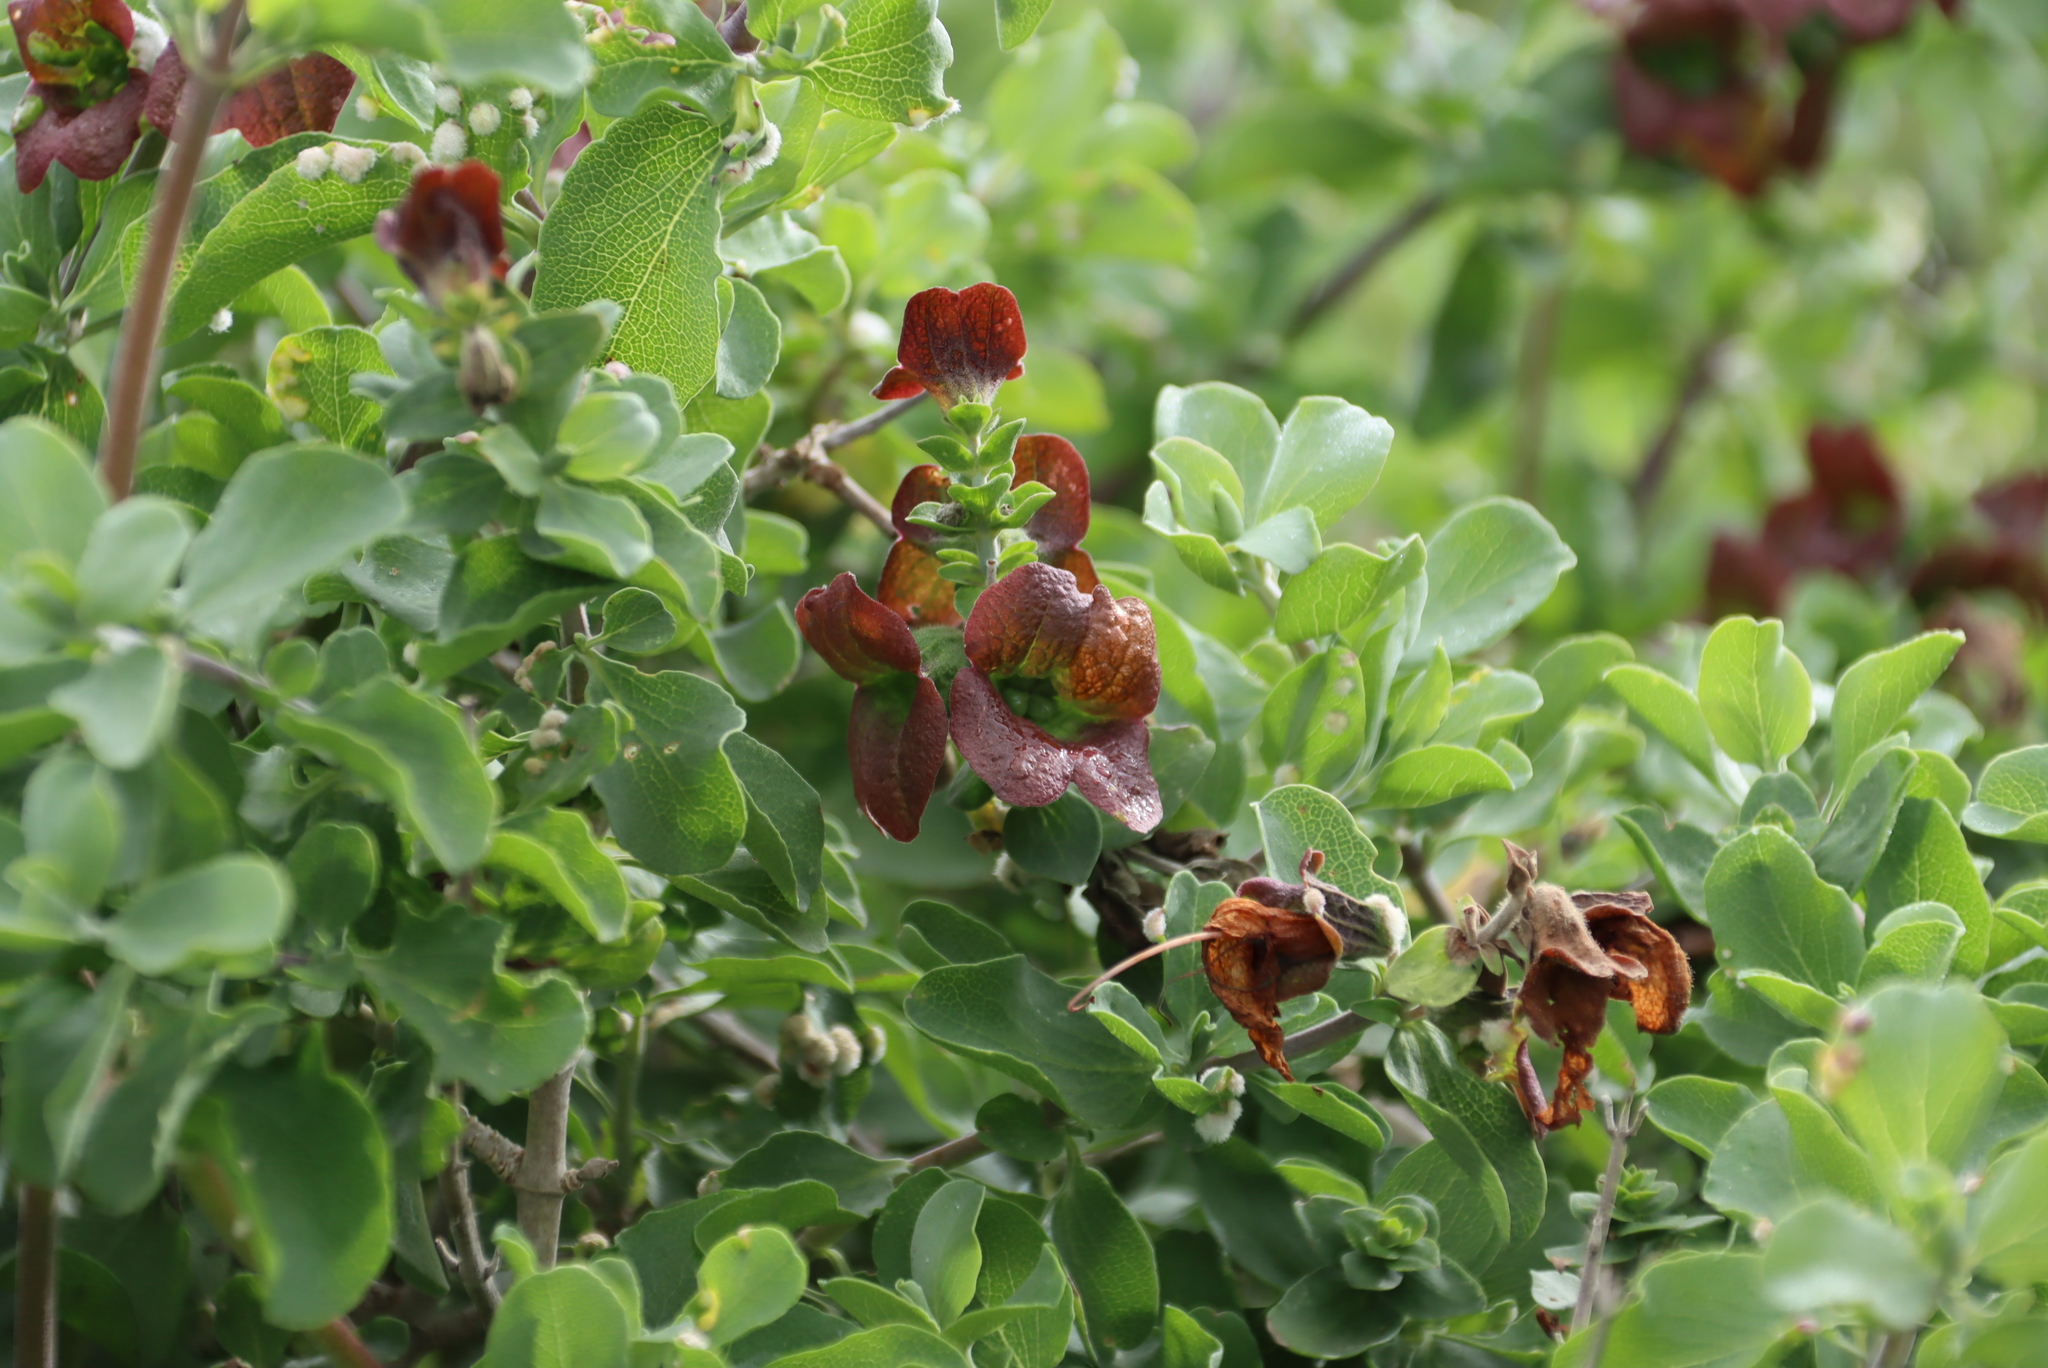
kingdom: Plantae
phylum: Tracheophyta
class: Magnoliopsida
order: Lamiales
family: Lamiaceae
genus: Salvia
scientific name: Salvia aurea
